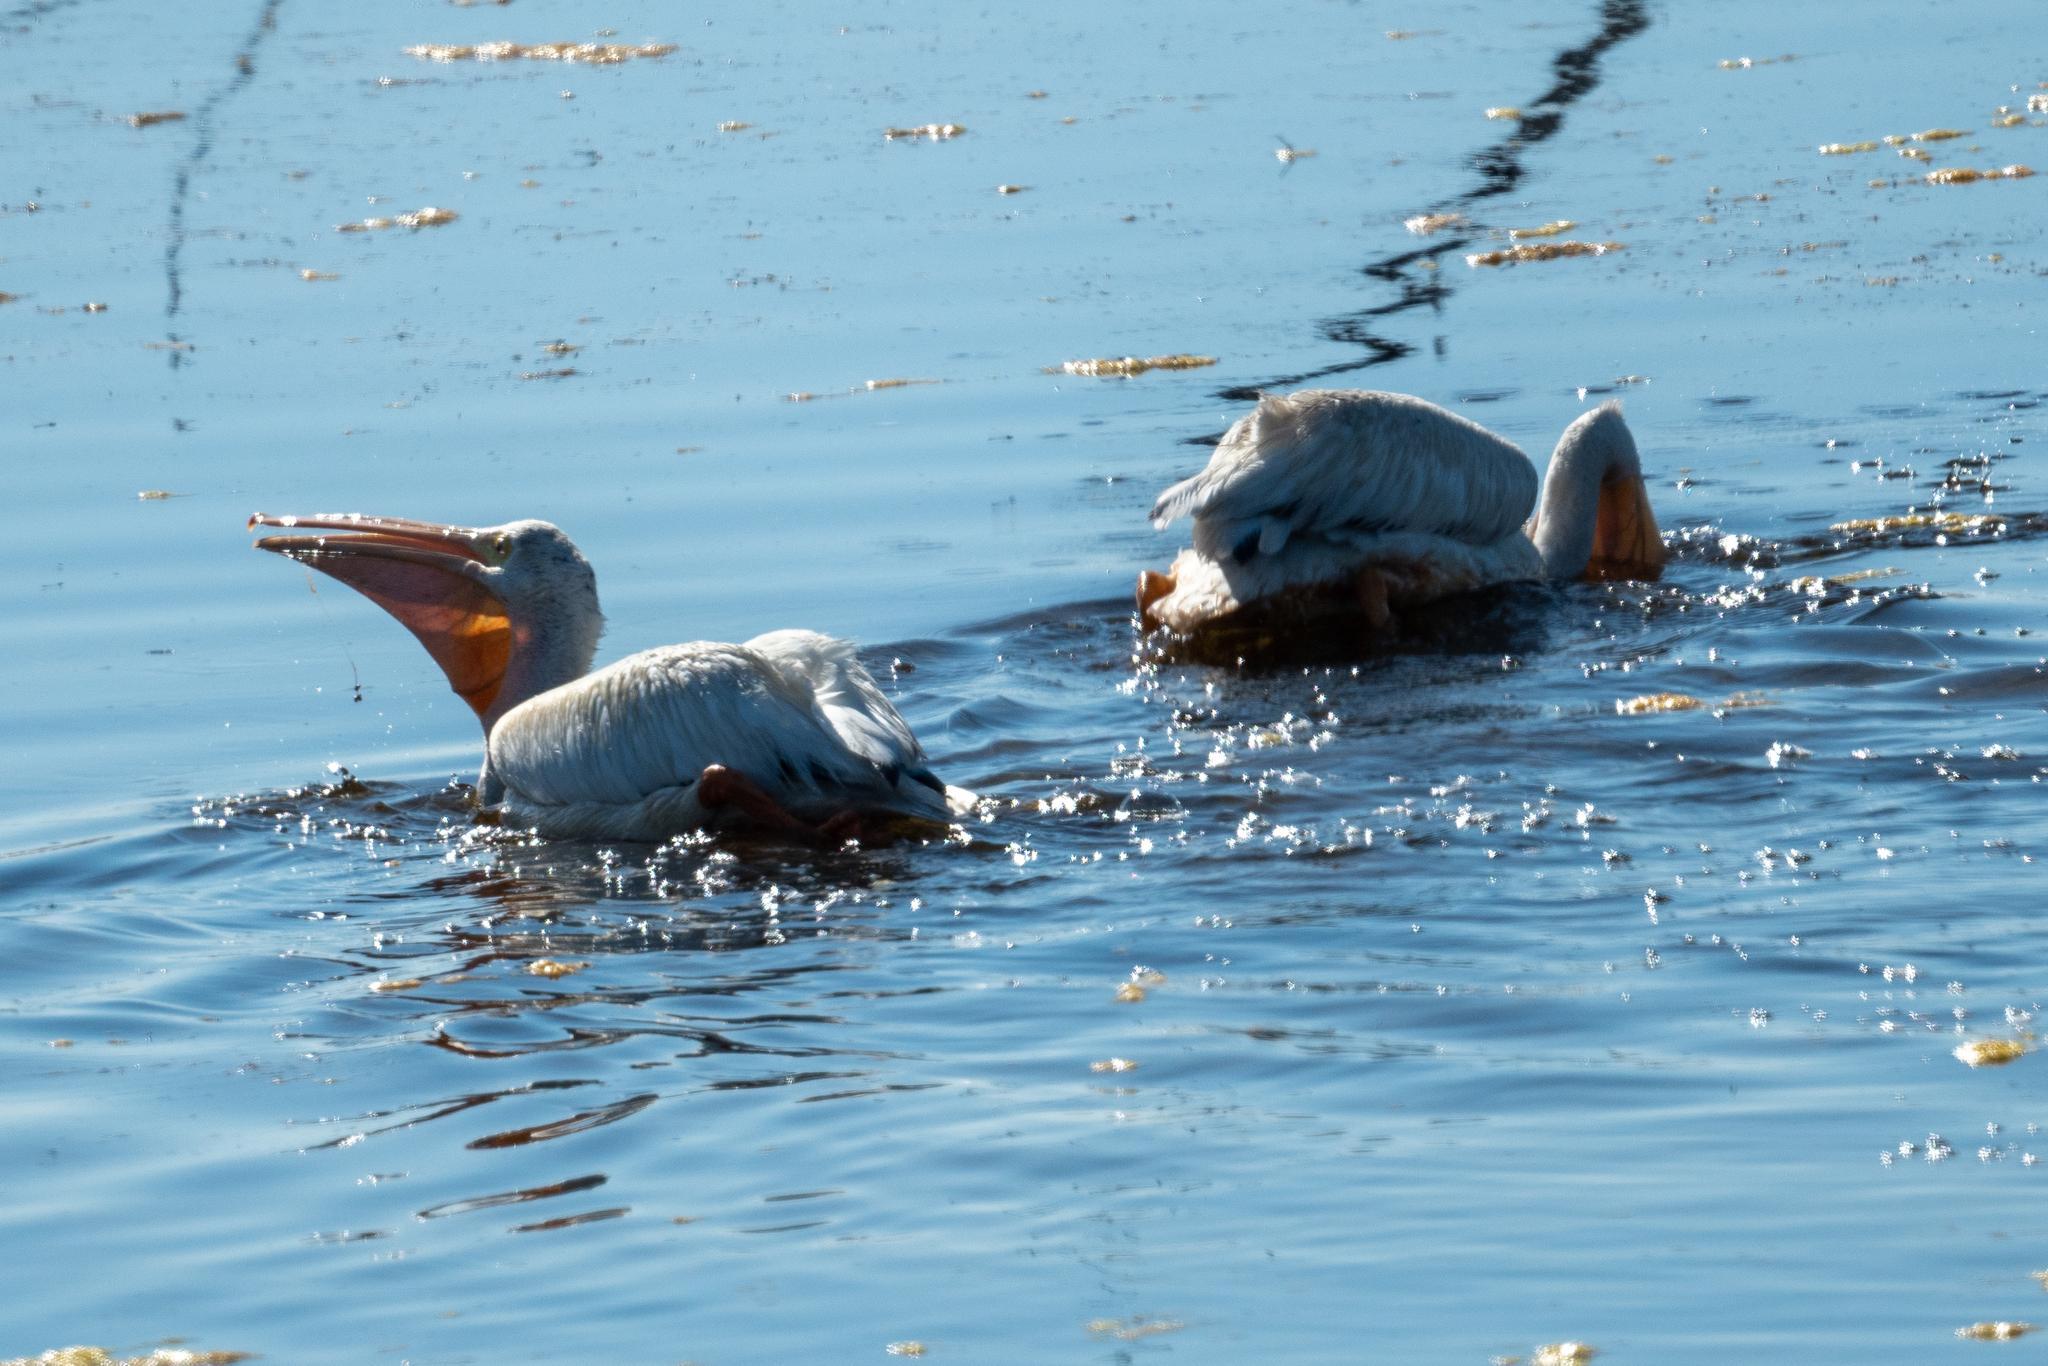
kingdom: Animalia
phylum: Chordata
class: Aves
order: Pelecaniformes
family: Pelecanidae
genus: Pelecanus
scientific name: Pelecanus erythrorhynchos
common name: American white pelican
